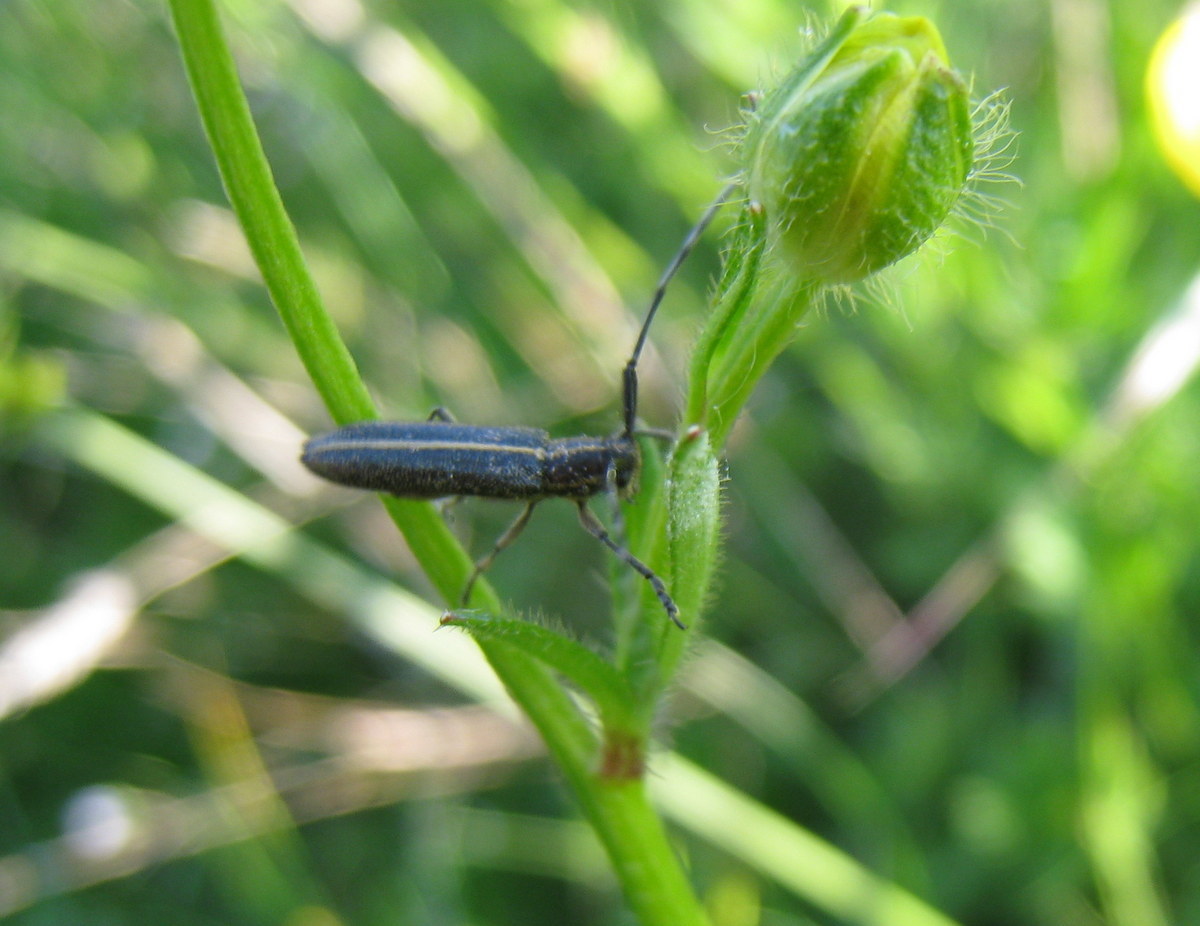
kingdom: Animalia
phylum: Arthropoda
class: Insecta
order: Coleoptera
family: Cerambycidae
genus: Agapanthia
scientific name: Agapanthia cardui
